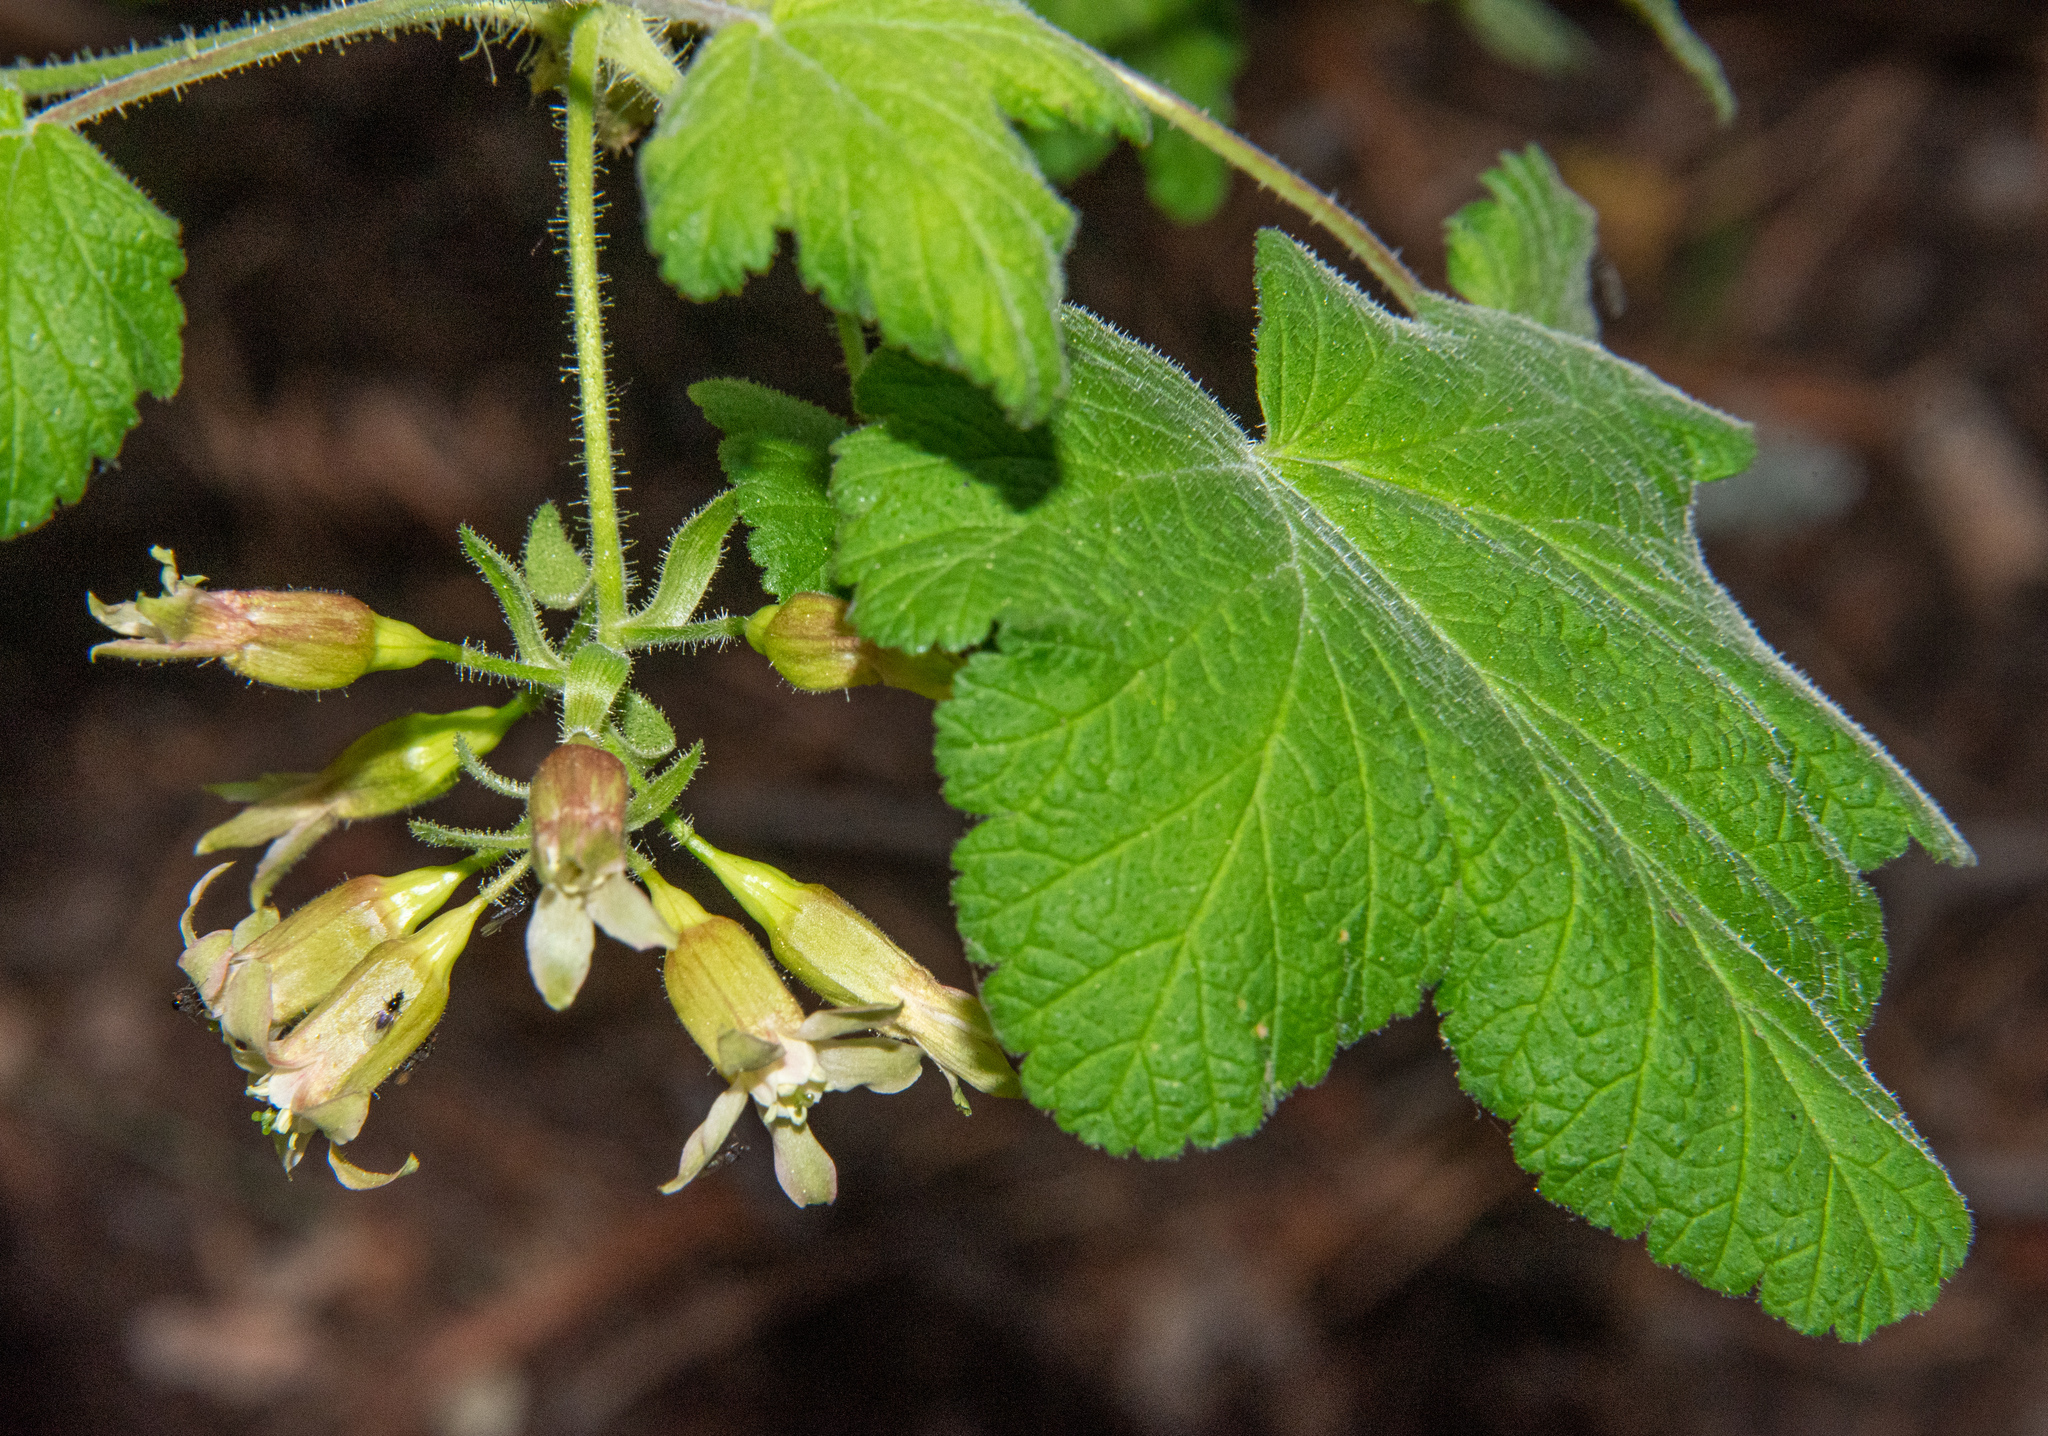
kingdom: Plantae
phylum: Tracheophyta
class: Magnoliopsida
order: Saxifragales
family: Grossulariaceae
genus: Ribes
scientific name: Ribes viscosissimum
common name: Sticky currant
